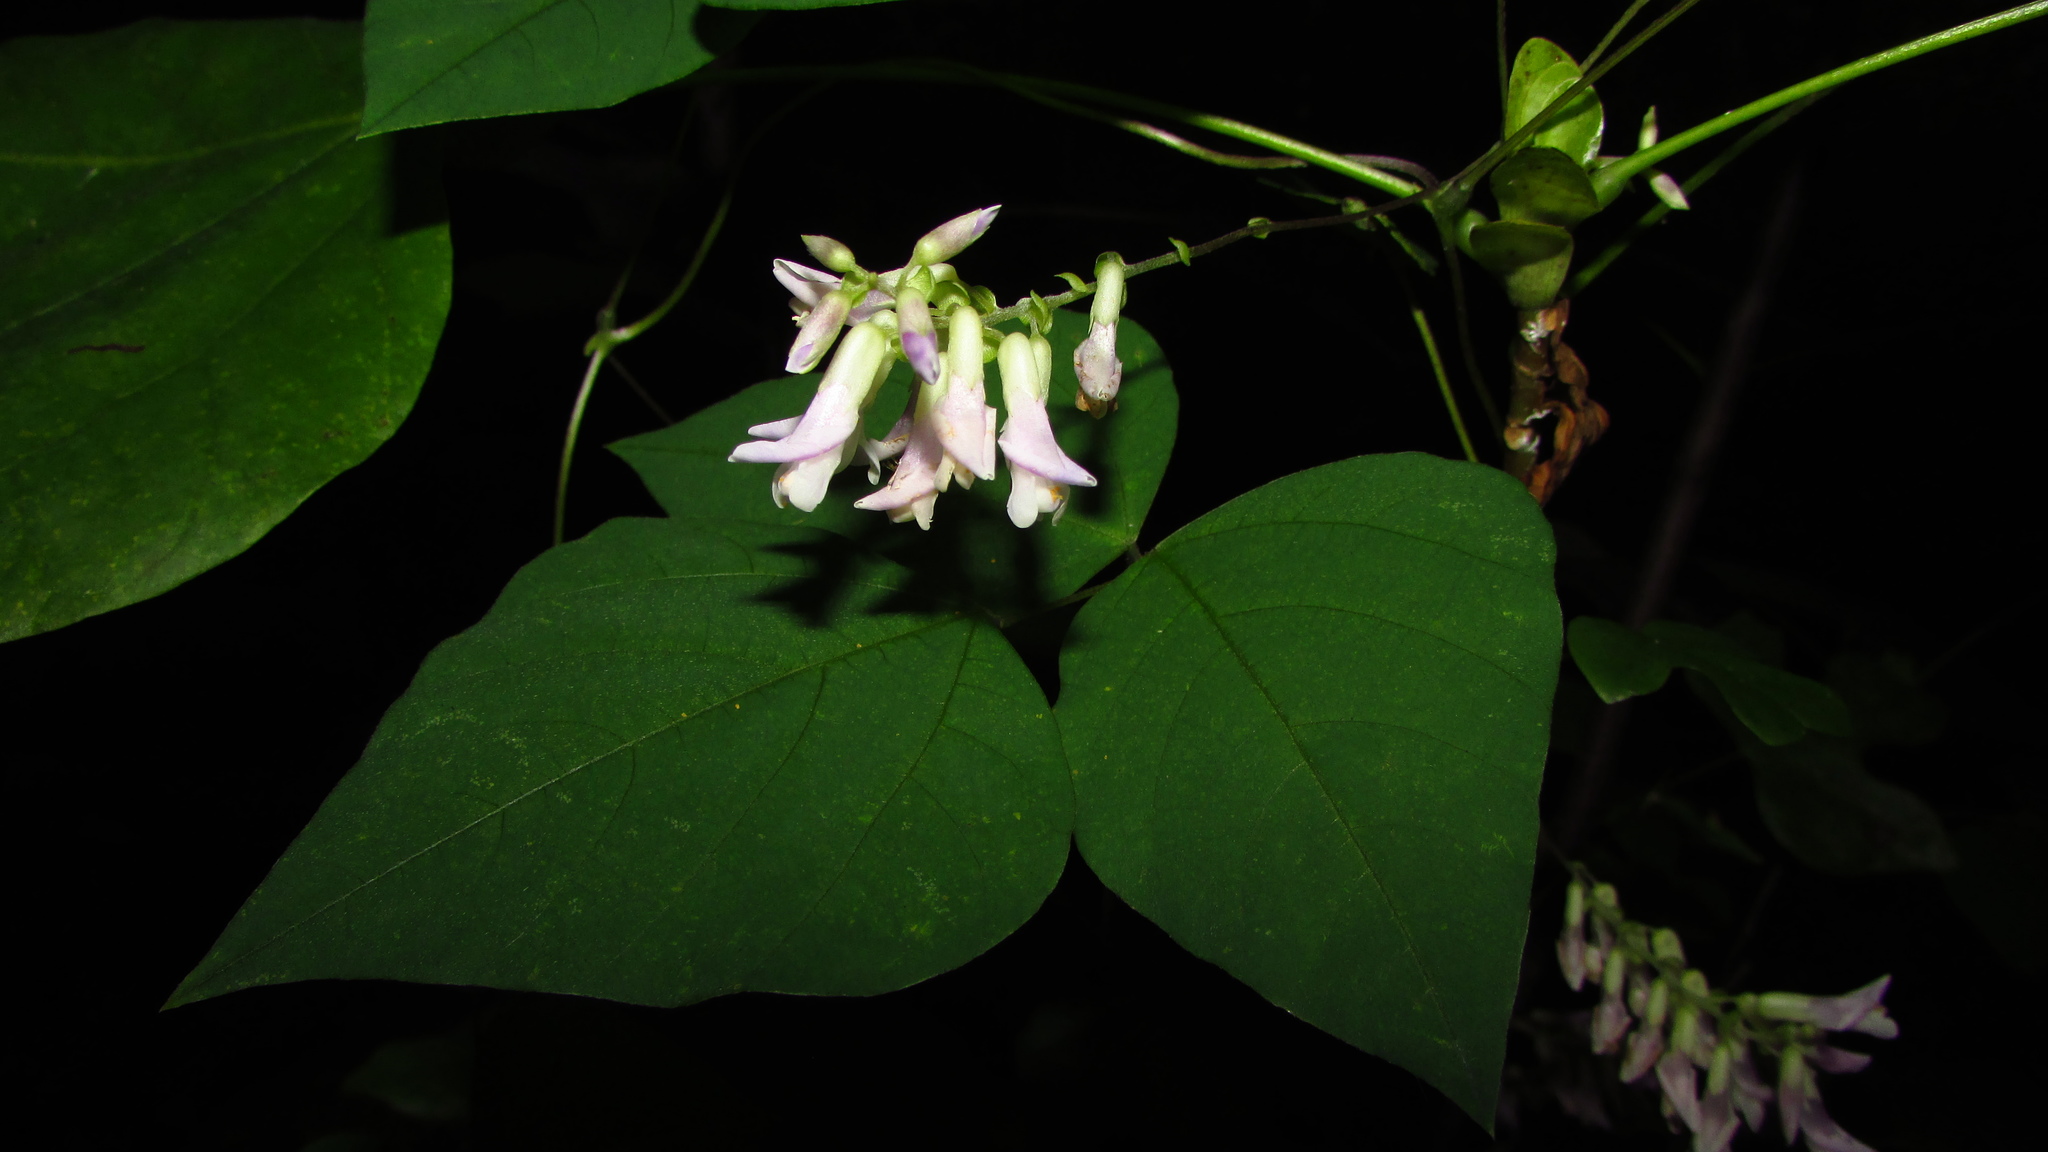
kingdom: Plantae
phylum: Tracheophyta
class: Magnoliopsida
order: Fabales
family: Fabaceae
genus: Amphicarpaea
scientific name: Amphicarpaea bracteata
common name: American hog peanut
